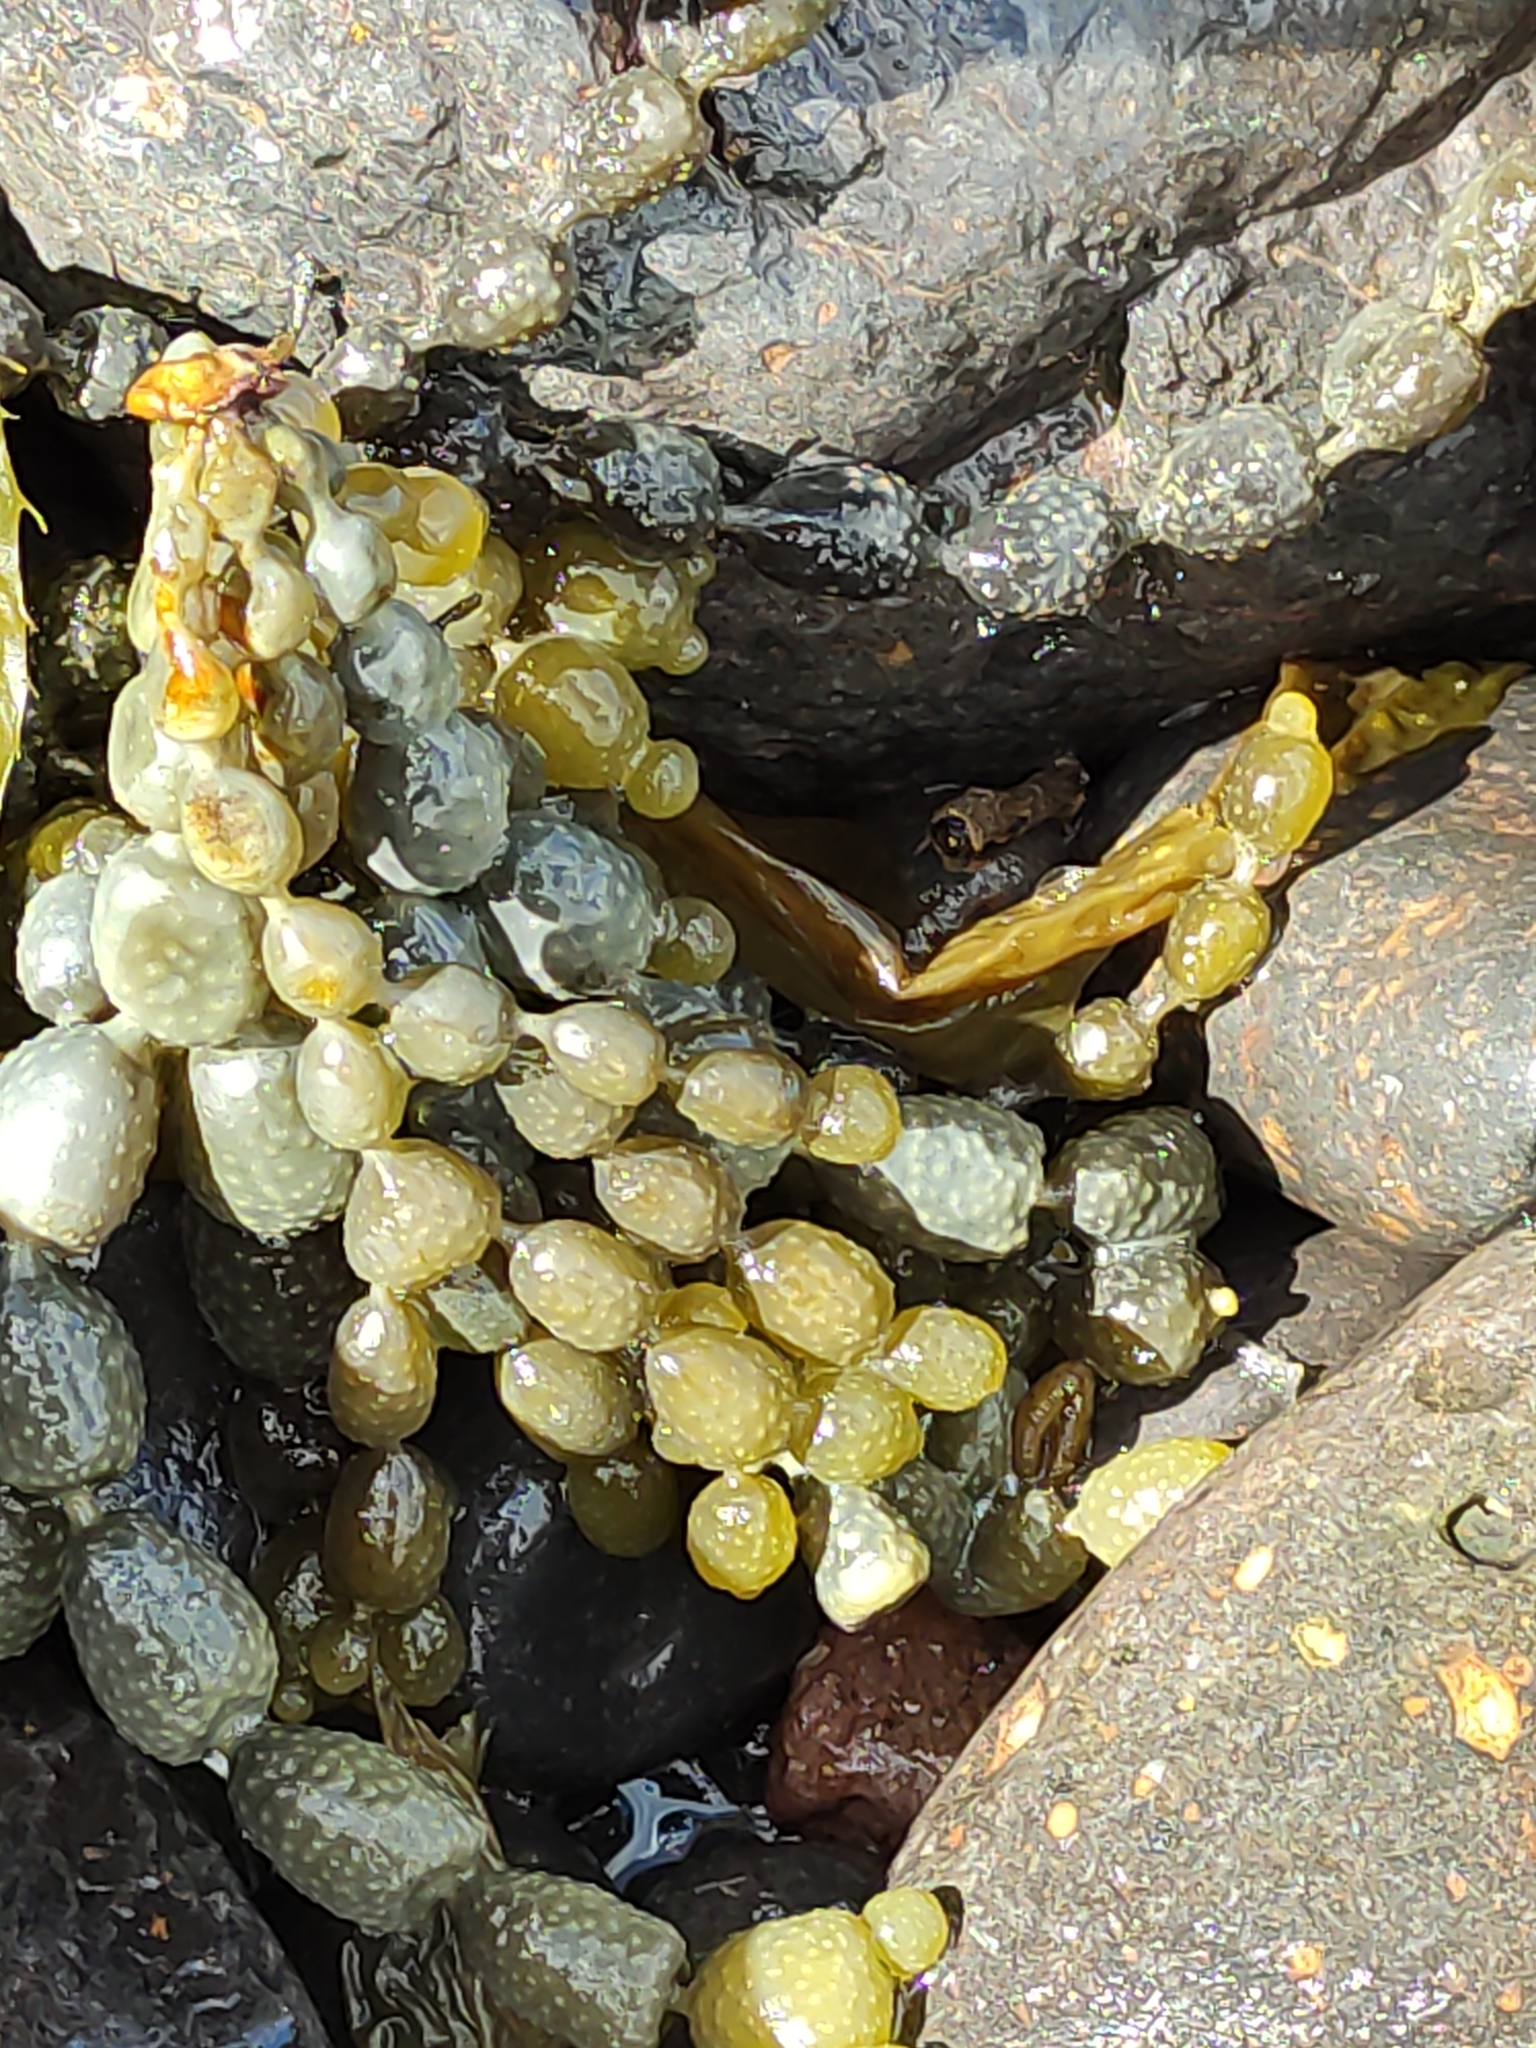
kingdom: Chromista
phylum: Ochrophyta
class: Phaeophyceae
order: Fucales
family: Hormosiraceae
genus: Hormosira
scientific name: Hormosira banksii
